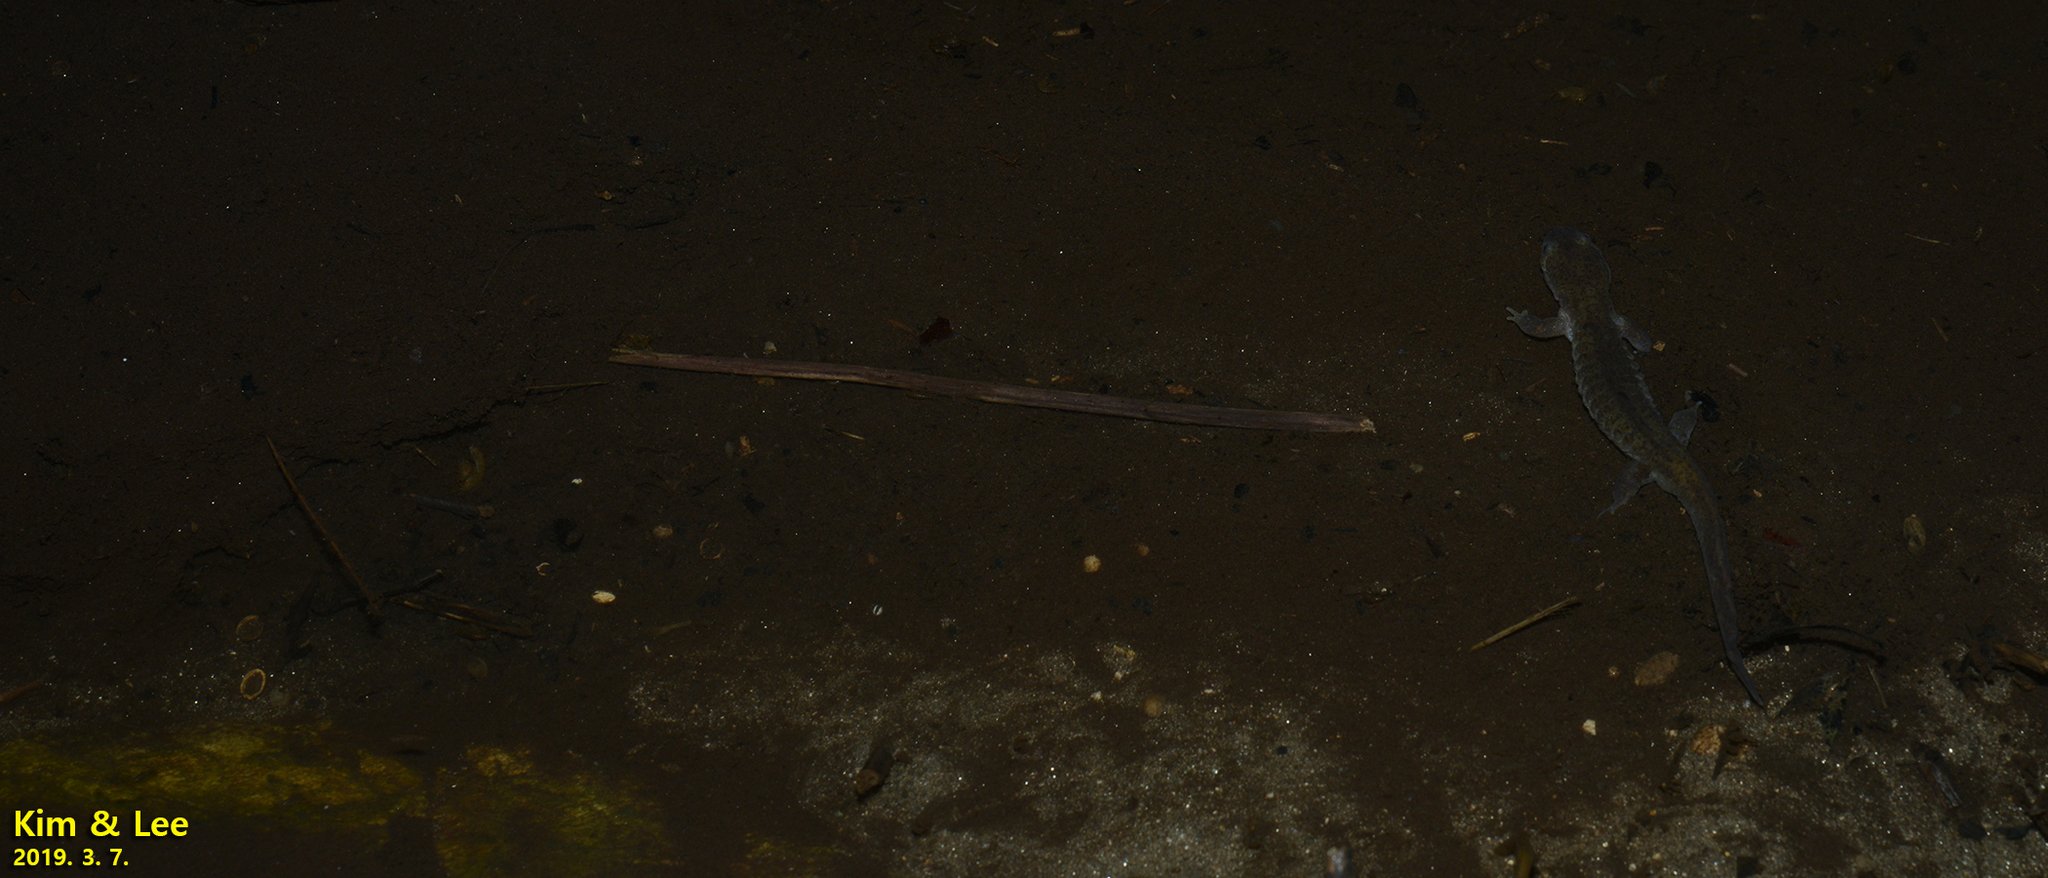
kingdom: Animalia
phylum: Chordata
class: Amphibia
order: Caudata
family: Hynobiidae
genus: Hynobius
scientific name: Hynobius leechii
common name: Gensan salamander
